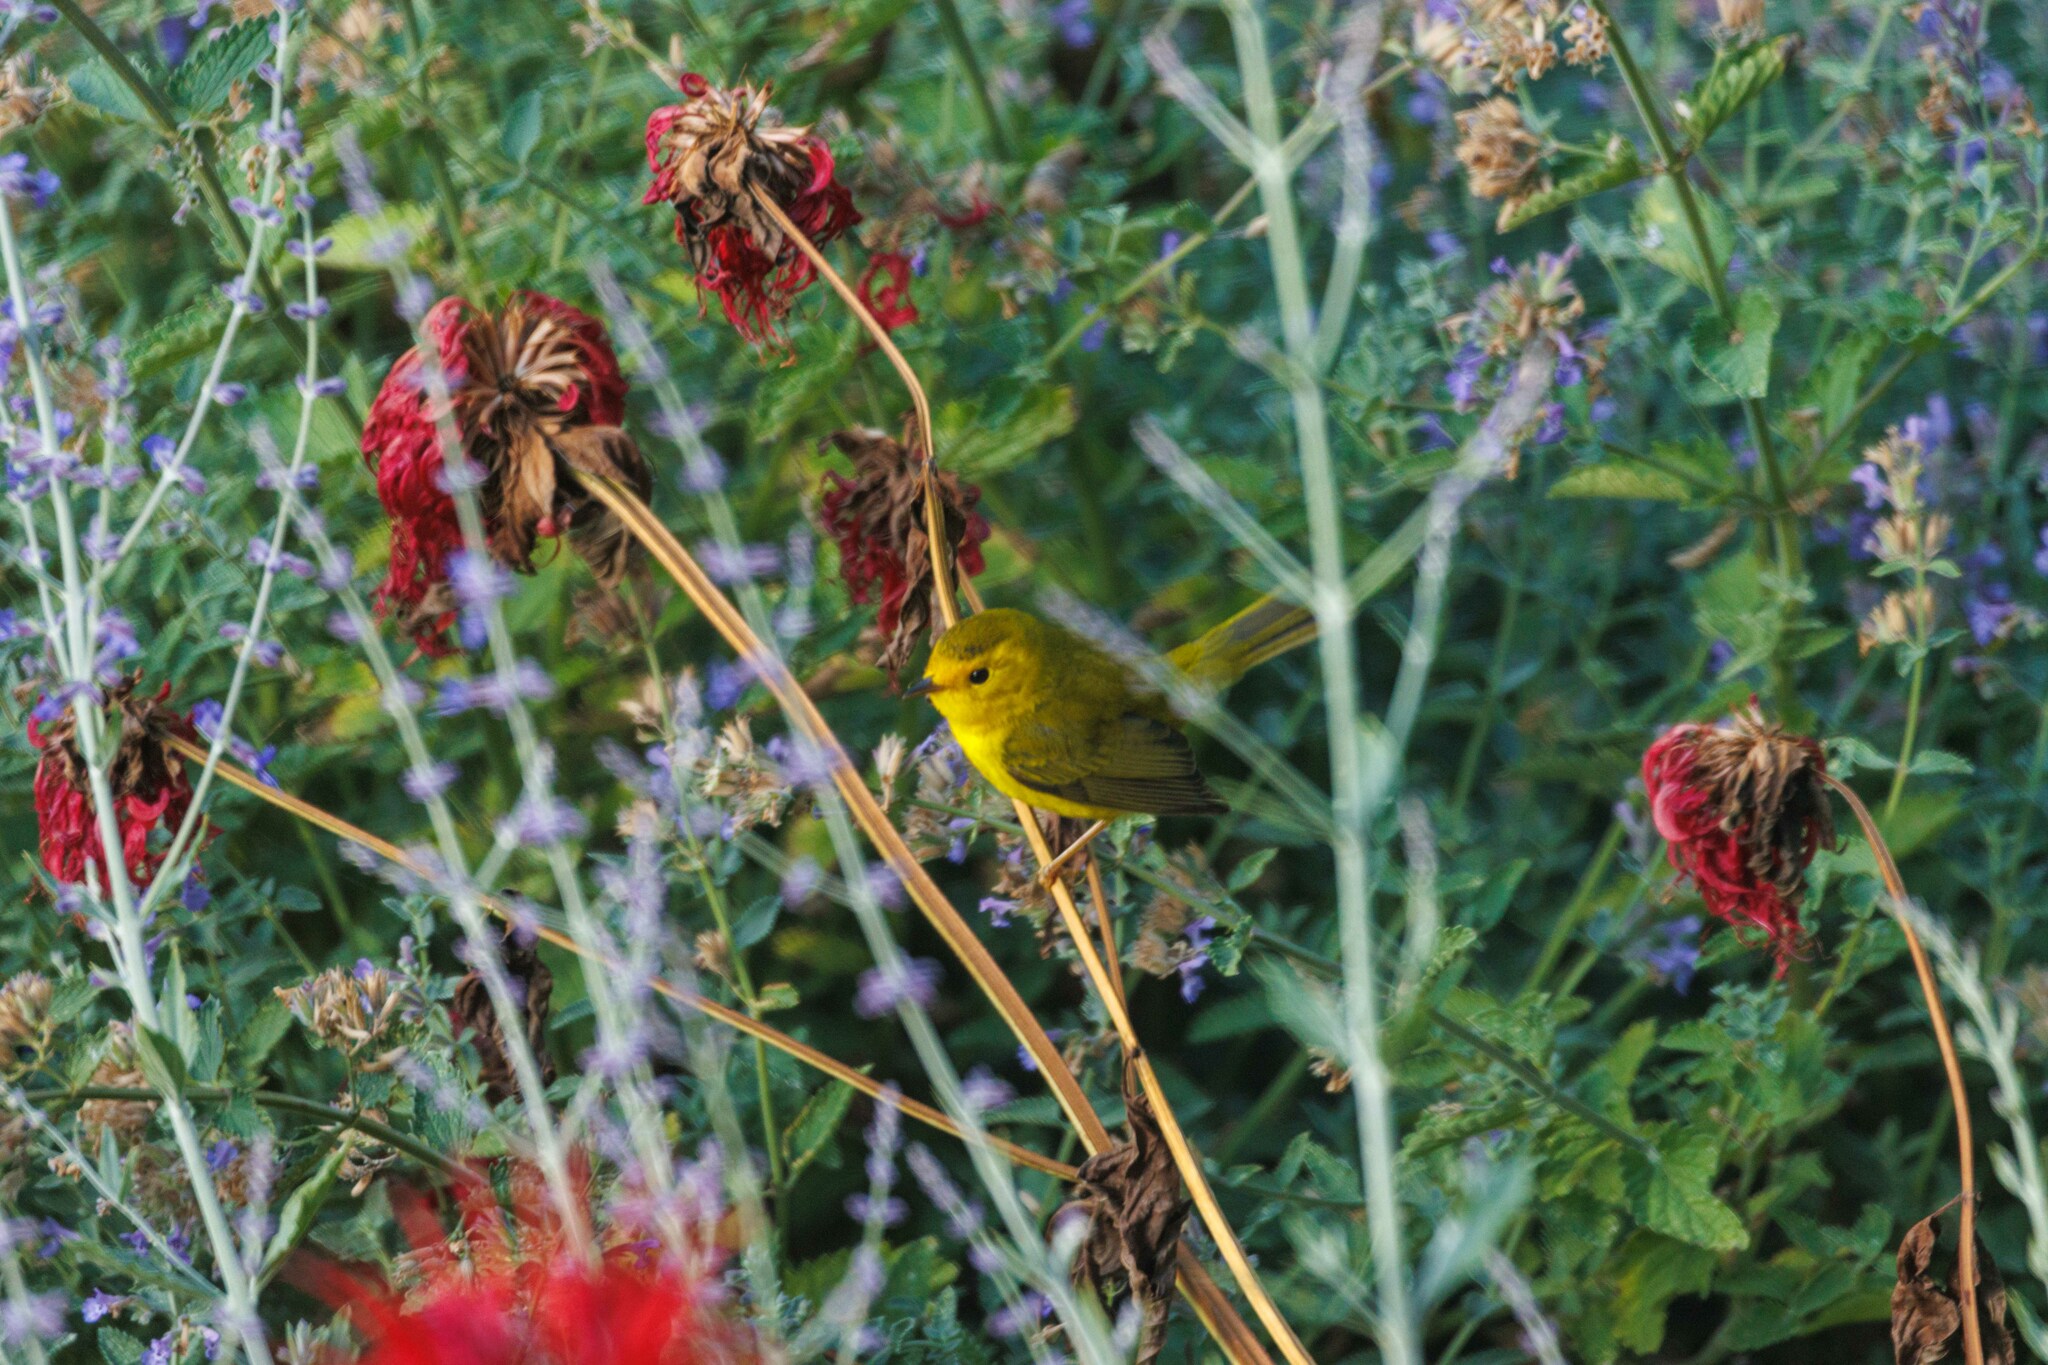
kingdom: Animalia
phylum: Chordata
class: Aves
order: Passeriformes
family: Parulidae
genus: Cardellina
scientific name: Cardellina pusilla
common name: Wilson's warbler
